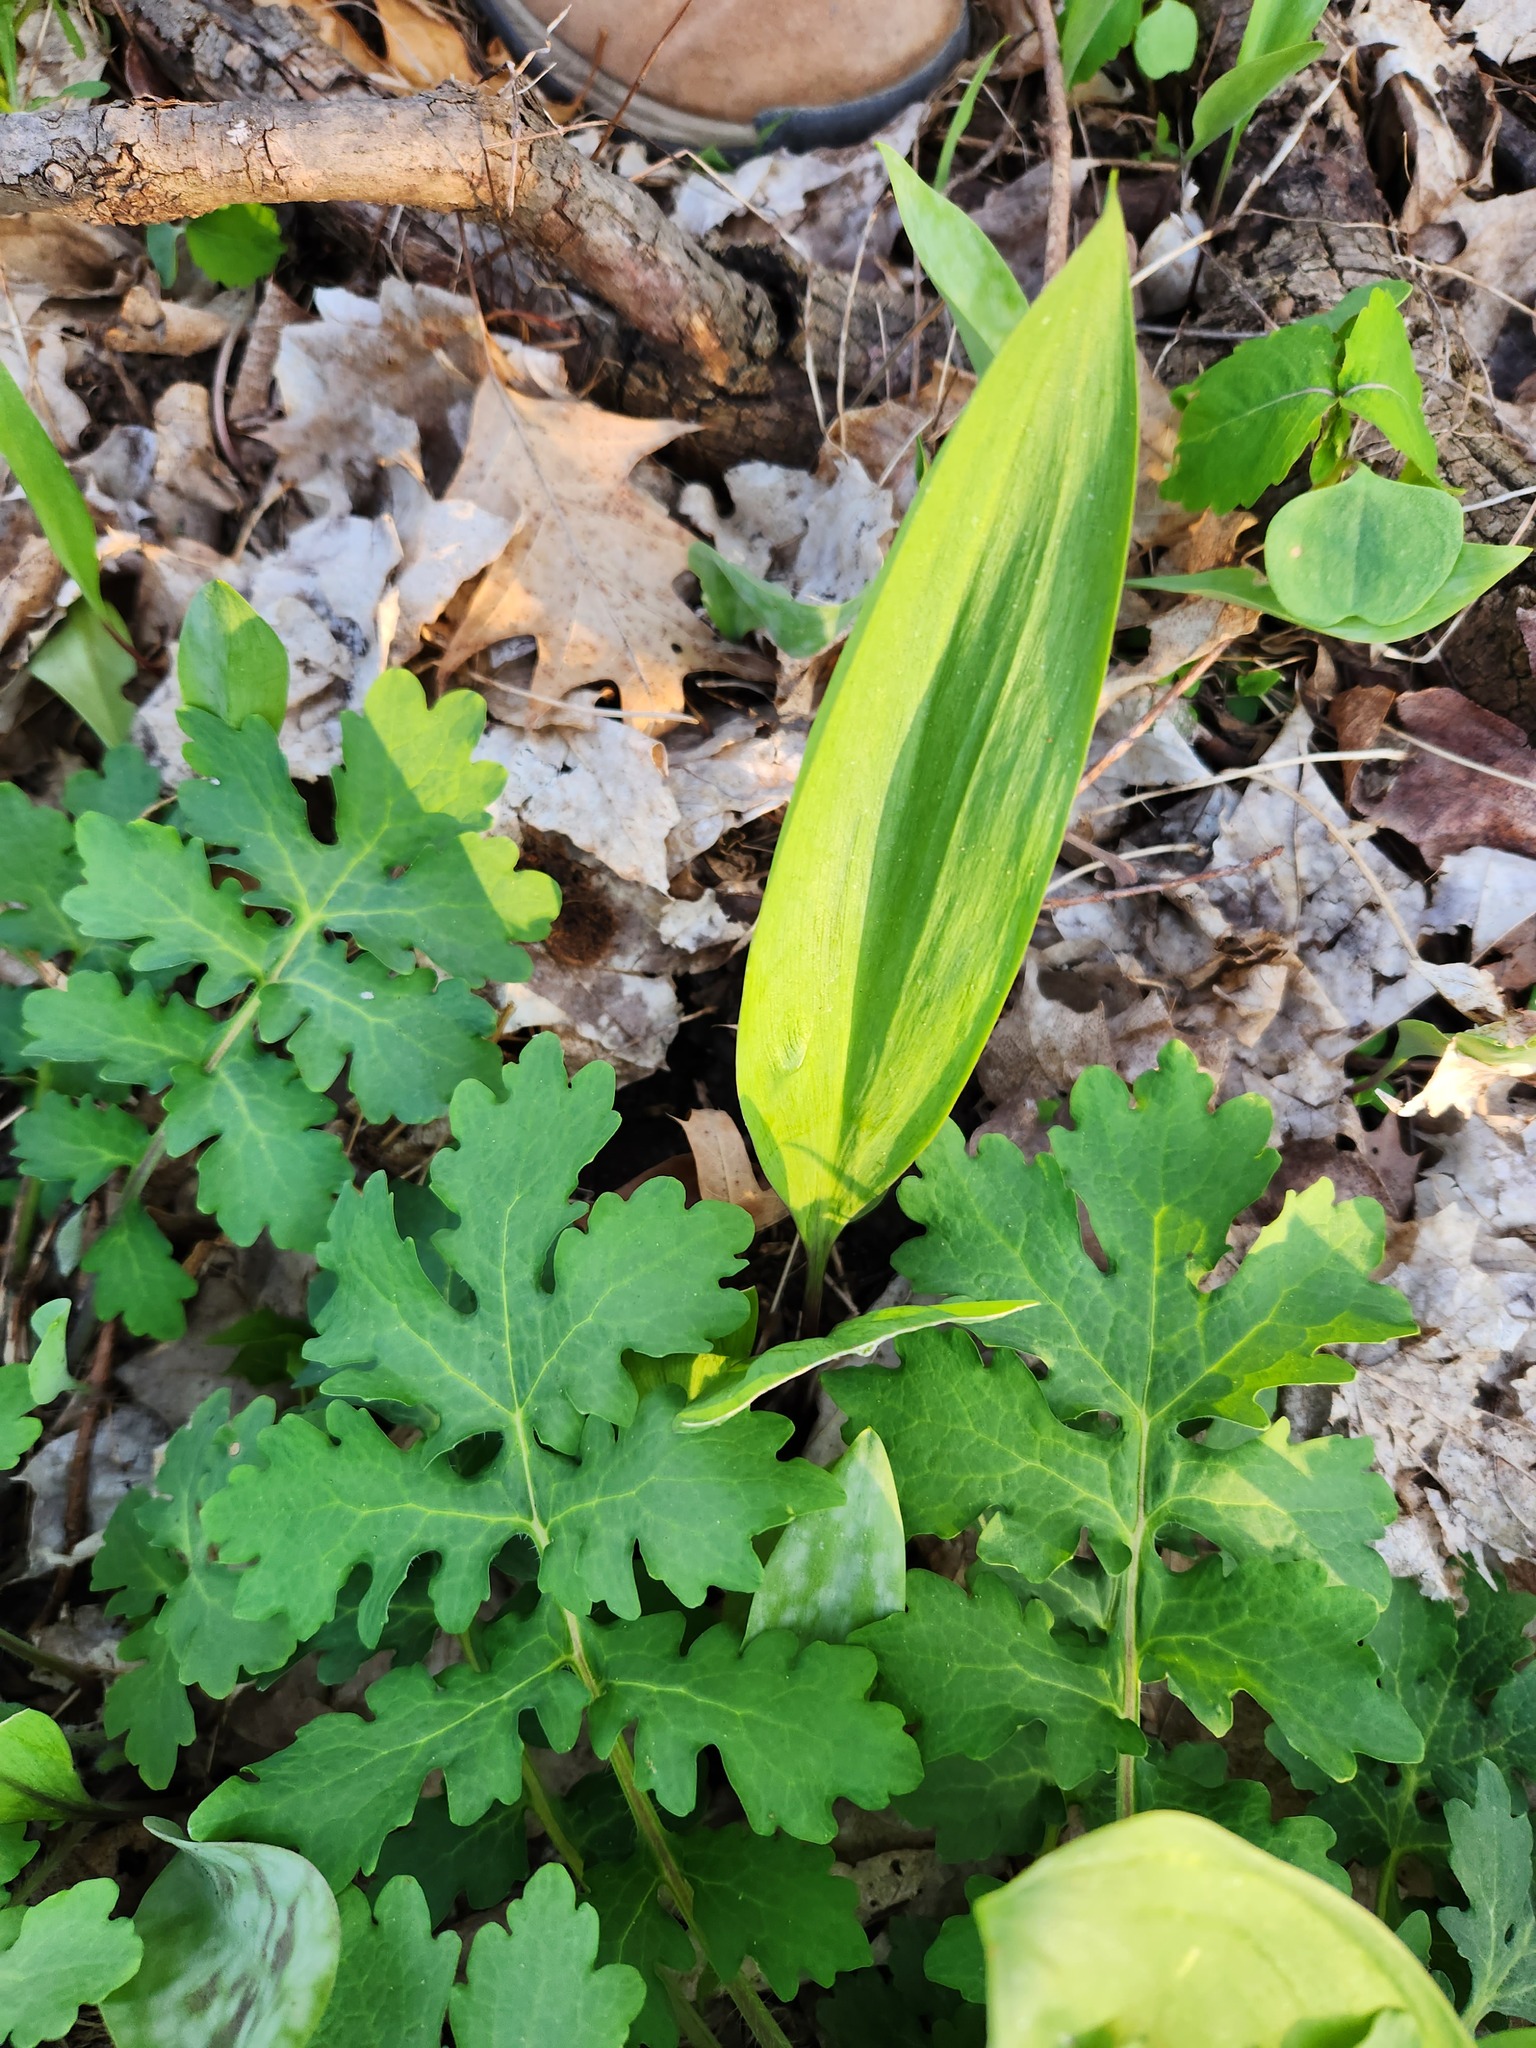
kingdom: Plantae
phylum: Tracheophyta
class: Liliopsida
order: Asparagales
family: Amaryllidaceae
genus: Allium
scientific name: Allium tricoccum
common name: Ramp
